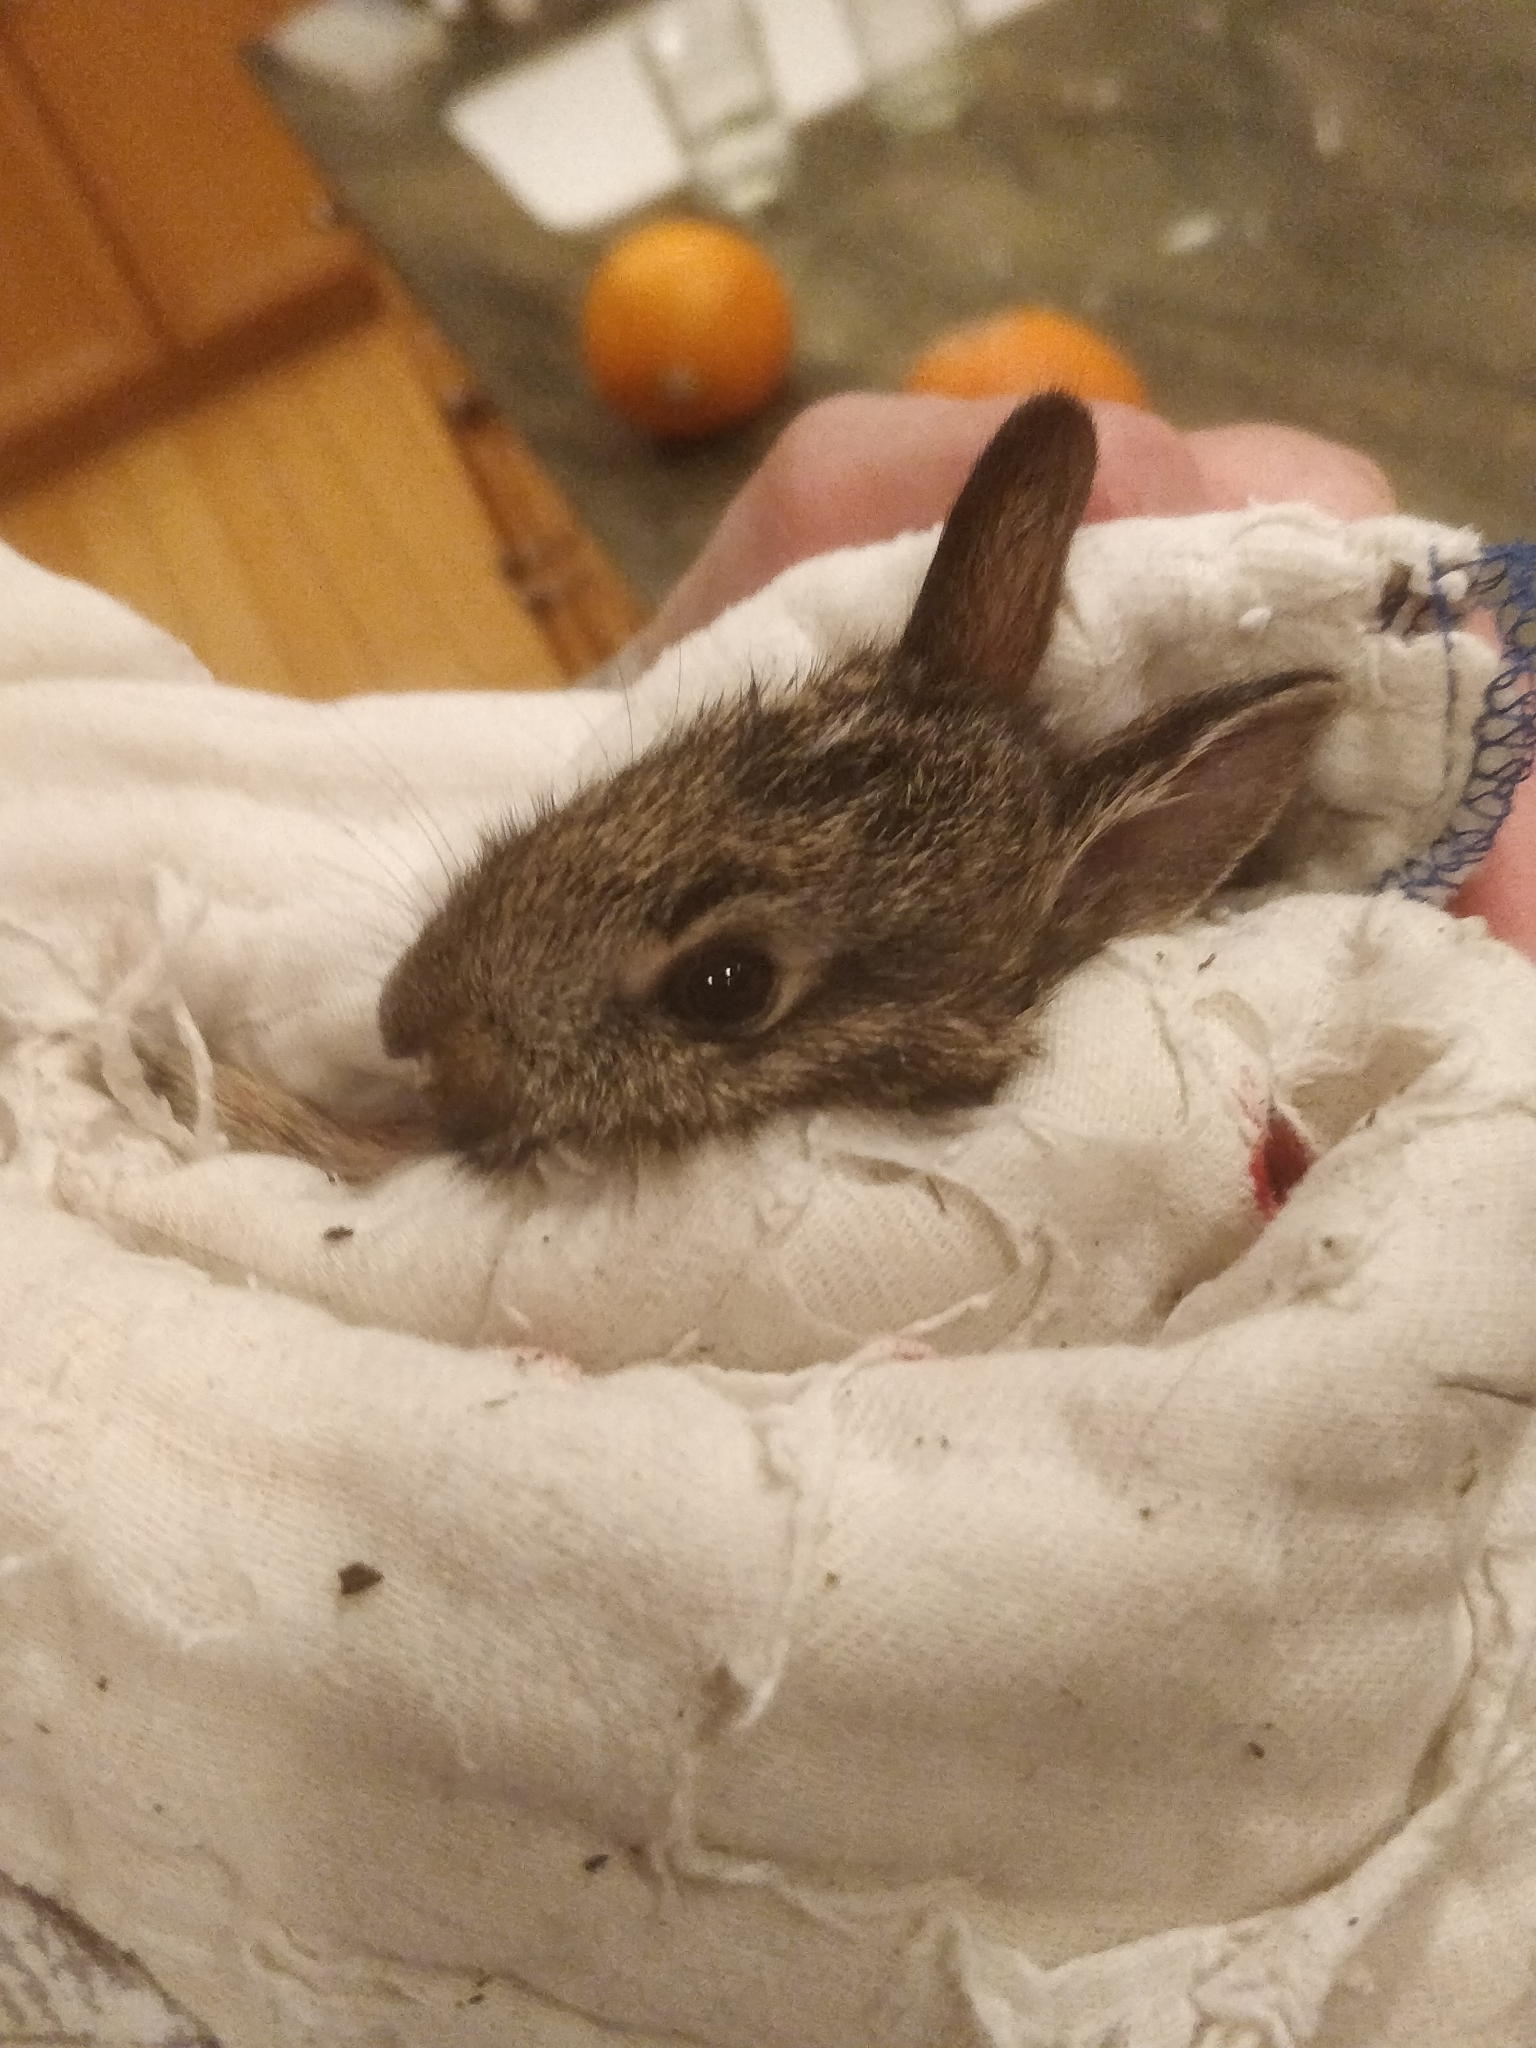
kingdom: Animalia
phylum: Chordata
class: Mammalia
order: Lagomorpha
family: Leporidae
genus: Sylvilagus
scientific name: Sylvilagus floridanus
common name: Eastern cottontail
